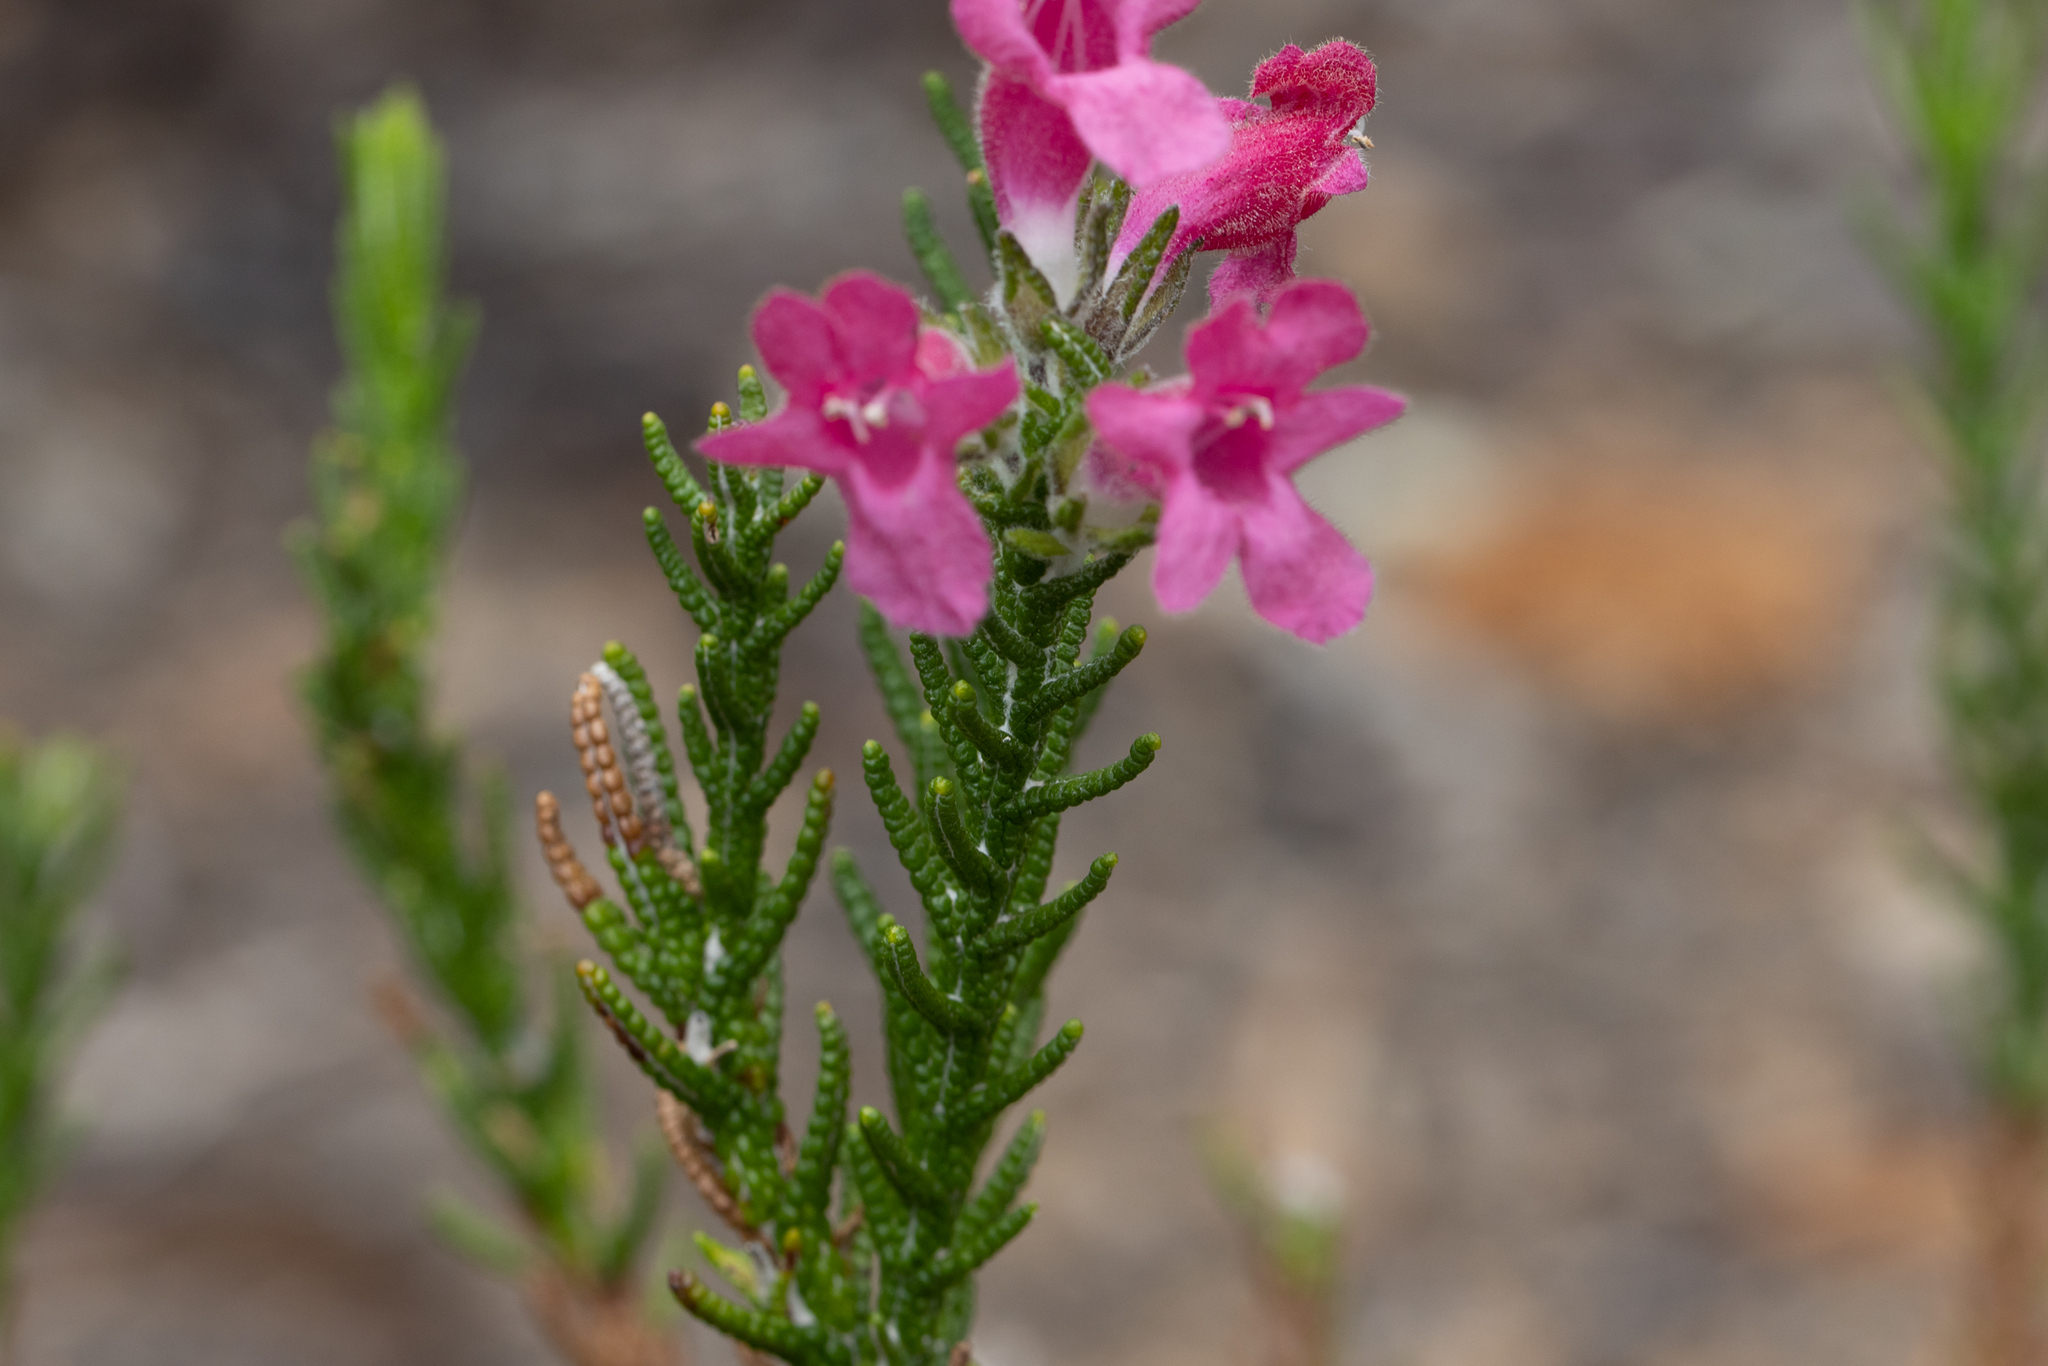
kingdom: Plantae
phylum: Tracheophyta
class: Magnoliopsida
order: Lamiales
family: Lamiaceae
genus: Chloanthes
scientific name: Chloanthes coccinea
